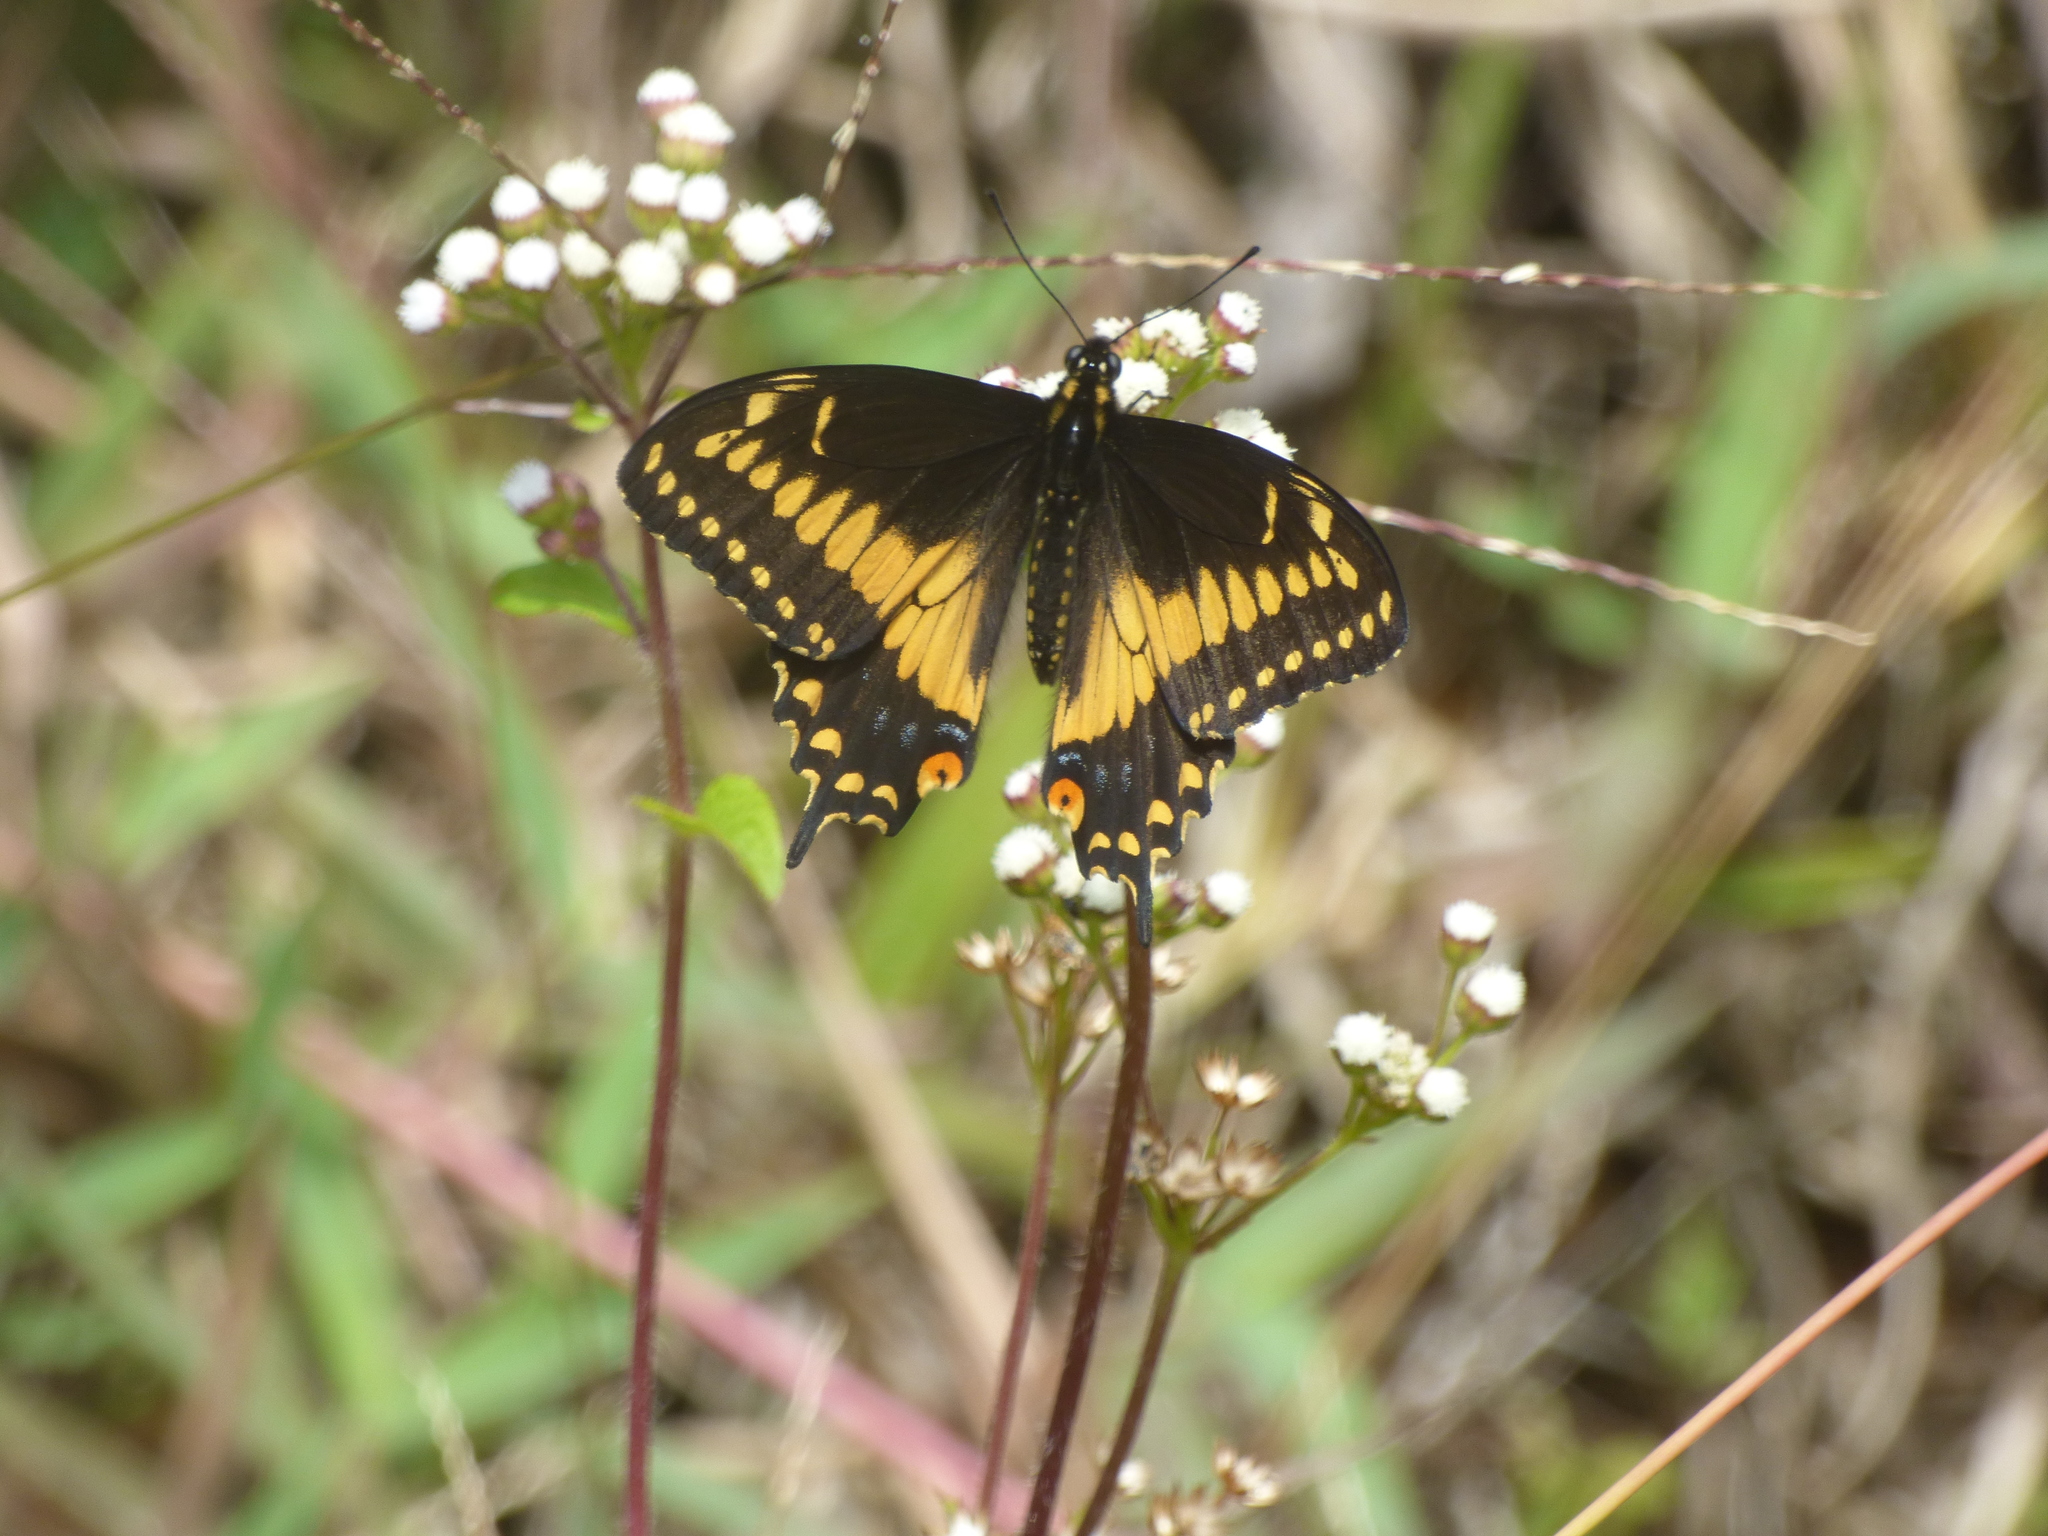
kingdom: Animalia
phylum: Arthropoda
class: Insecta
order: Lepidoptera
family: Papilionidae
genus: Papilio
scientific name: Papilio polyxenes
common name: Black swallowtail
